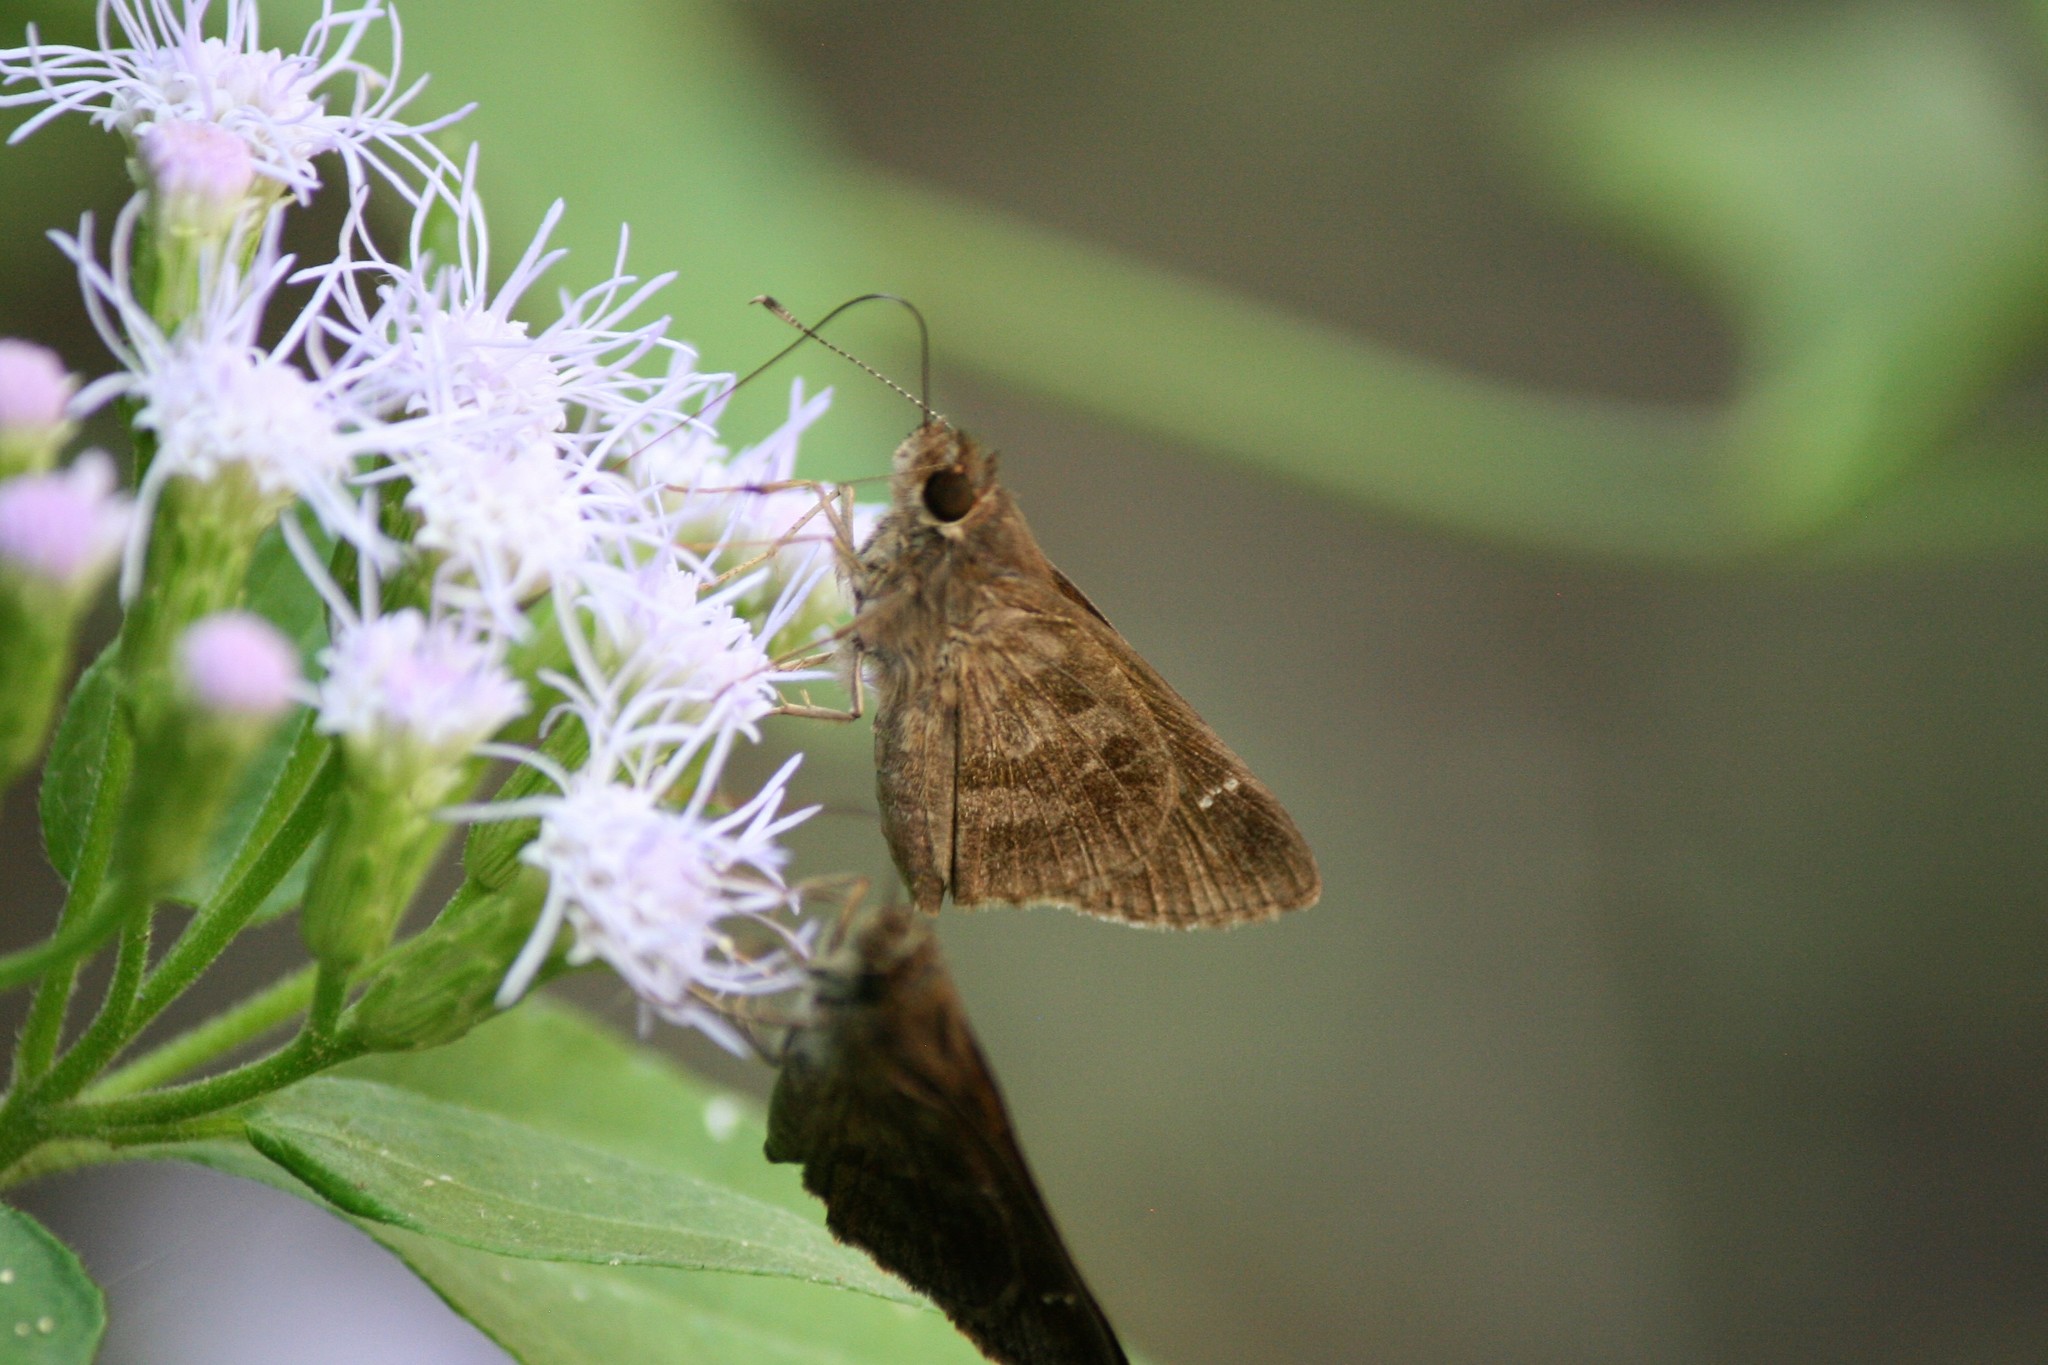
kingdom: Animalia
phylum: Arthropoda
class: Insecta
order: Lepidoptera
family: Hesperiidae
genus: Cymaenes
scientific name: Cymaenes
